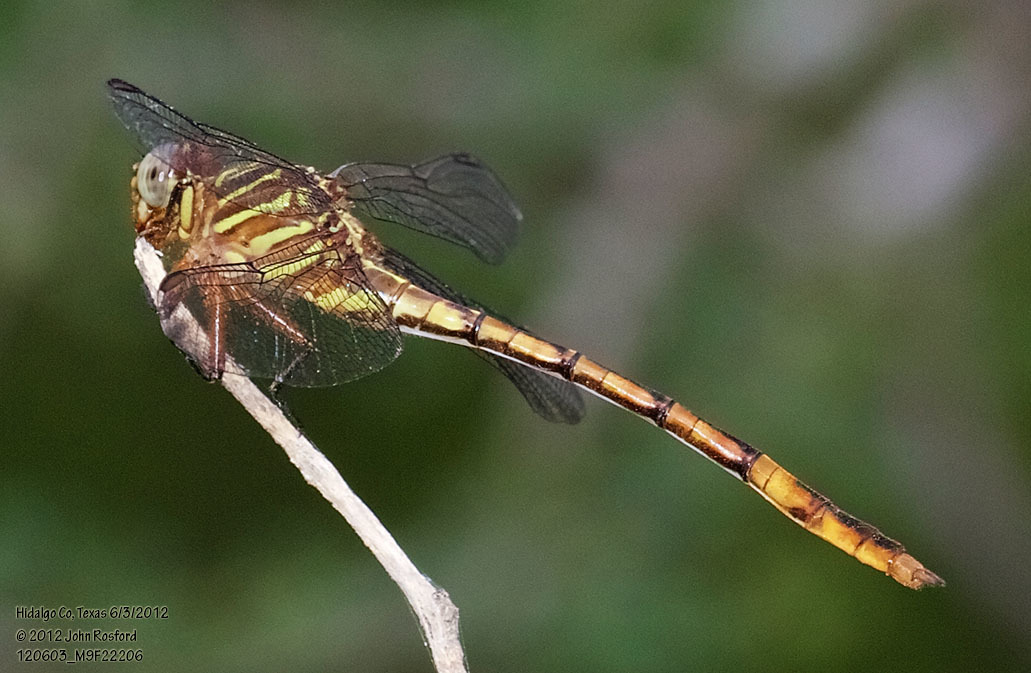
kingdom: Animalia
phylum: Arthropoda
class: Insecta
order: Odonata
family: Gomphidae
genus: Aphylla
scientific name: Aphylla angustifolia
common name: Broad-striped forceptail
